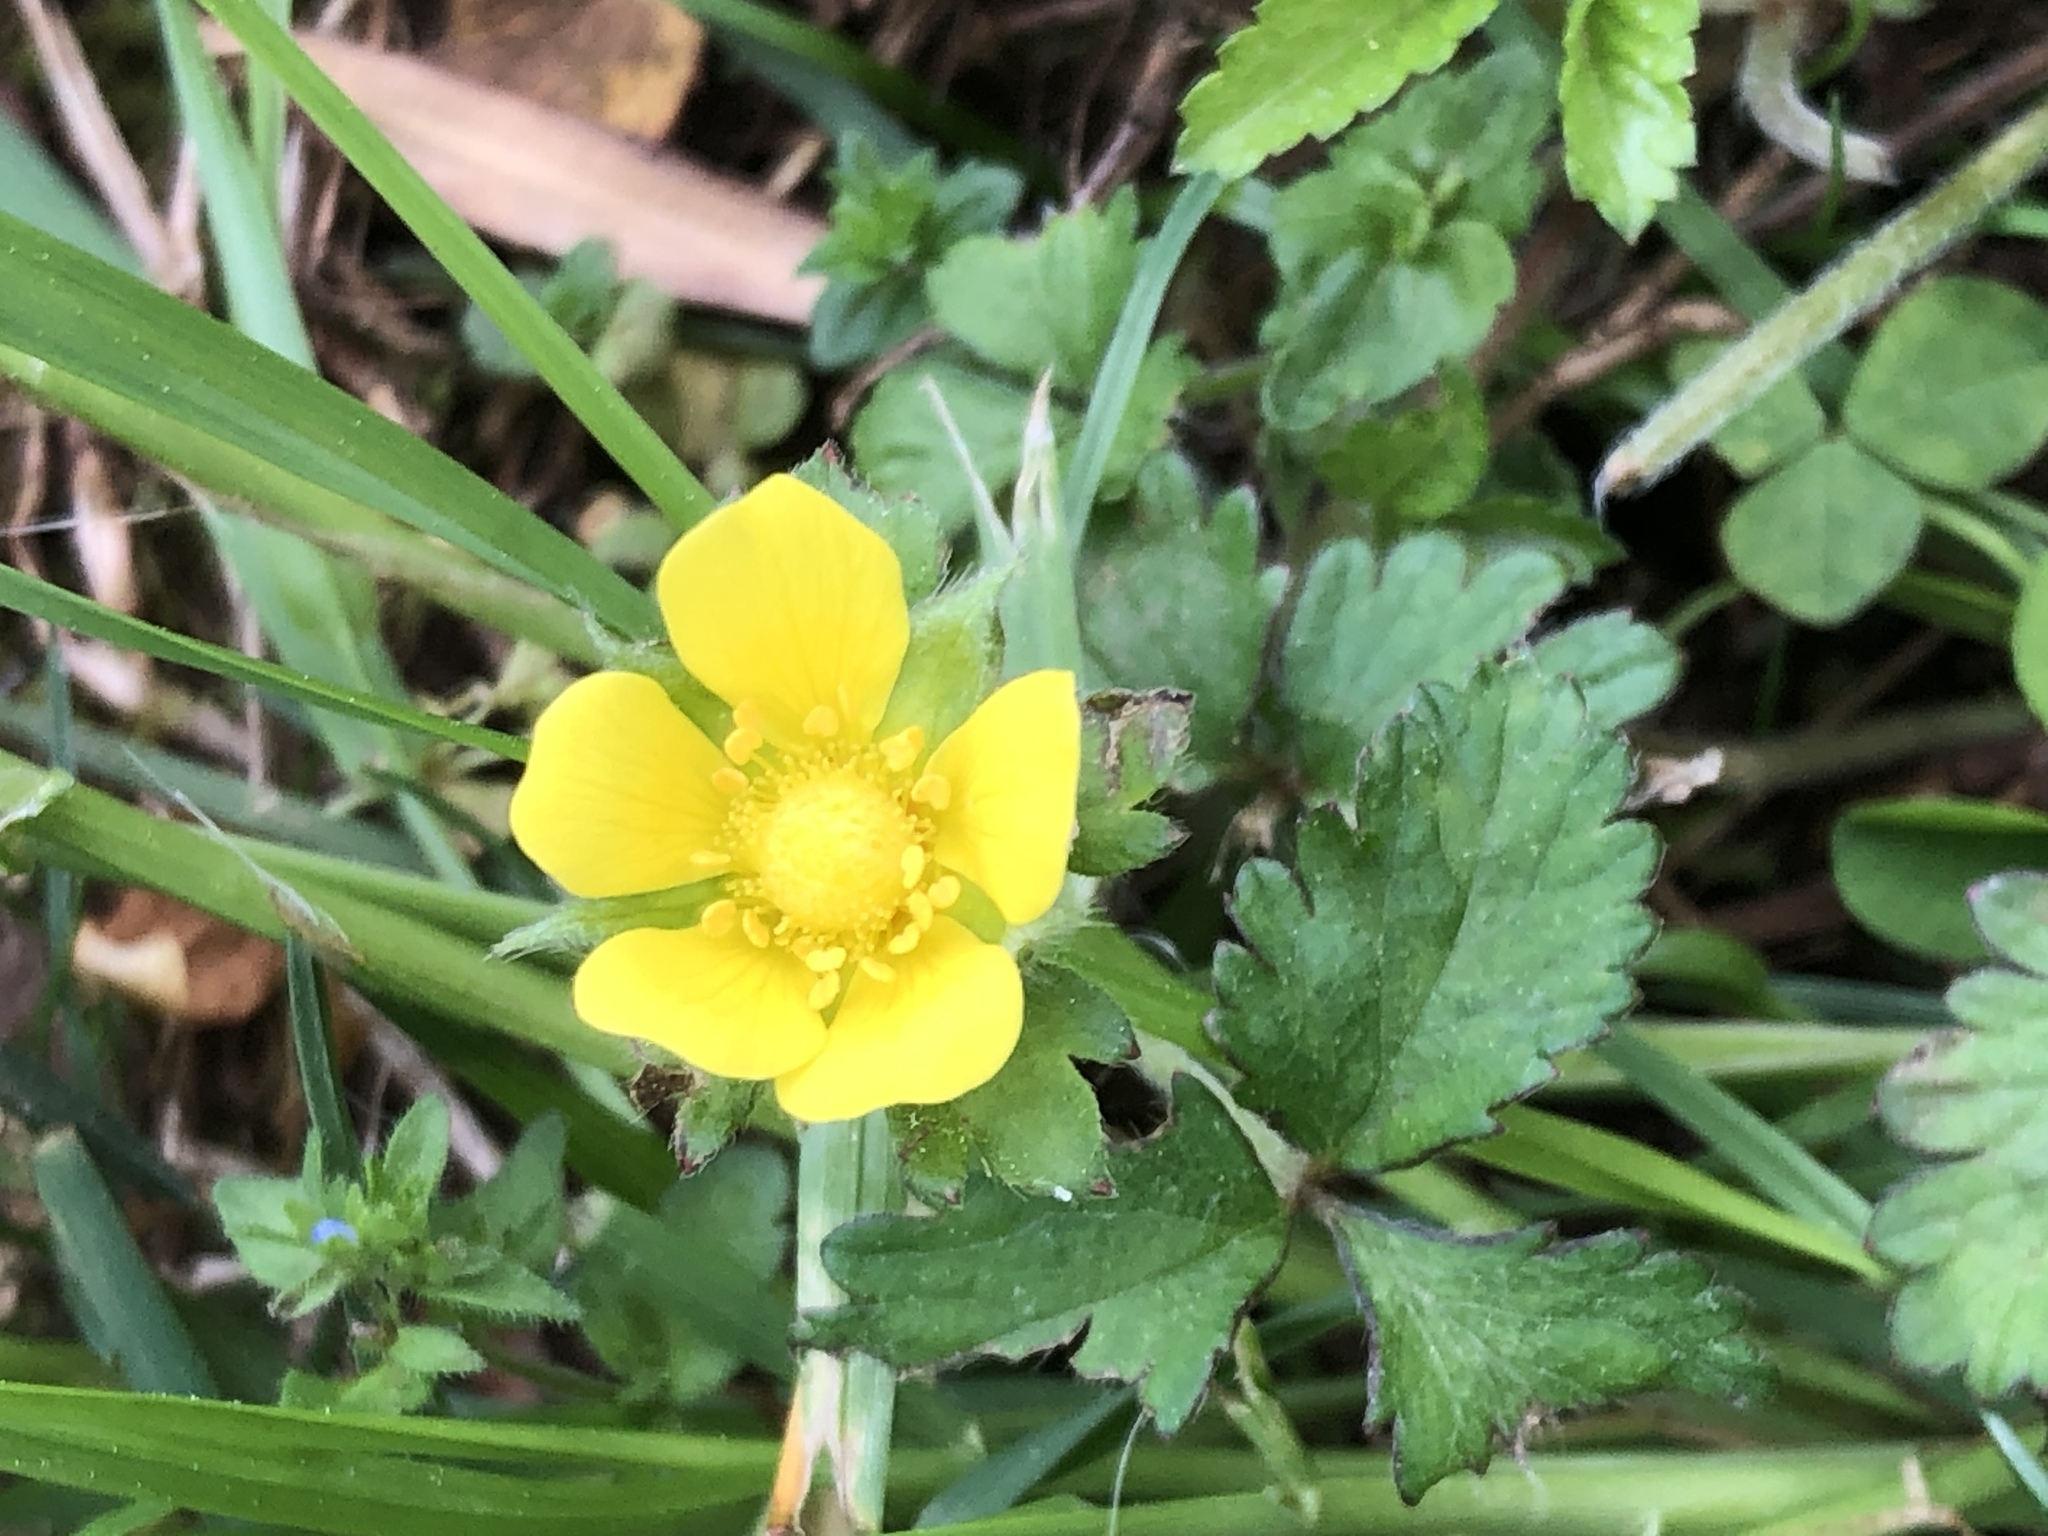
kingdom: Plantae
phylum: Tracheophyta
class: Magnoliopsida
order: Rosales
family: Rosaceae
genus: Potentilla
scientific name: Potentilla indica
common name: Yellow-flowered strawberry
